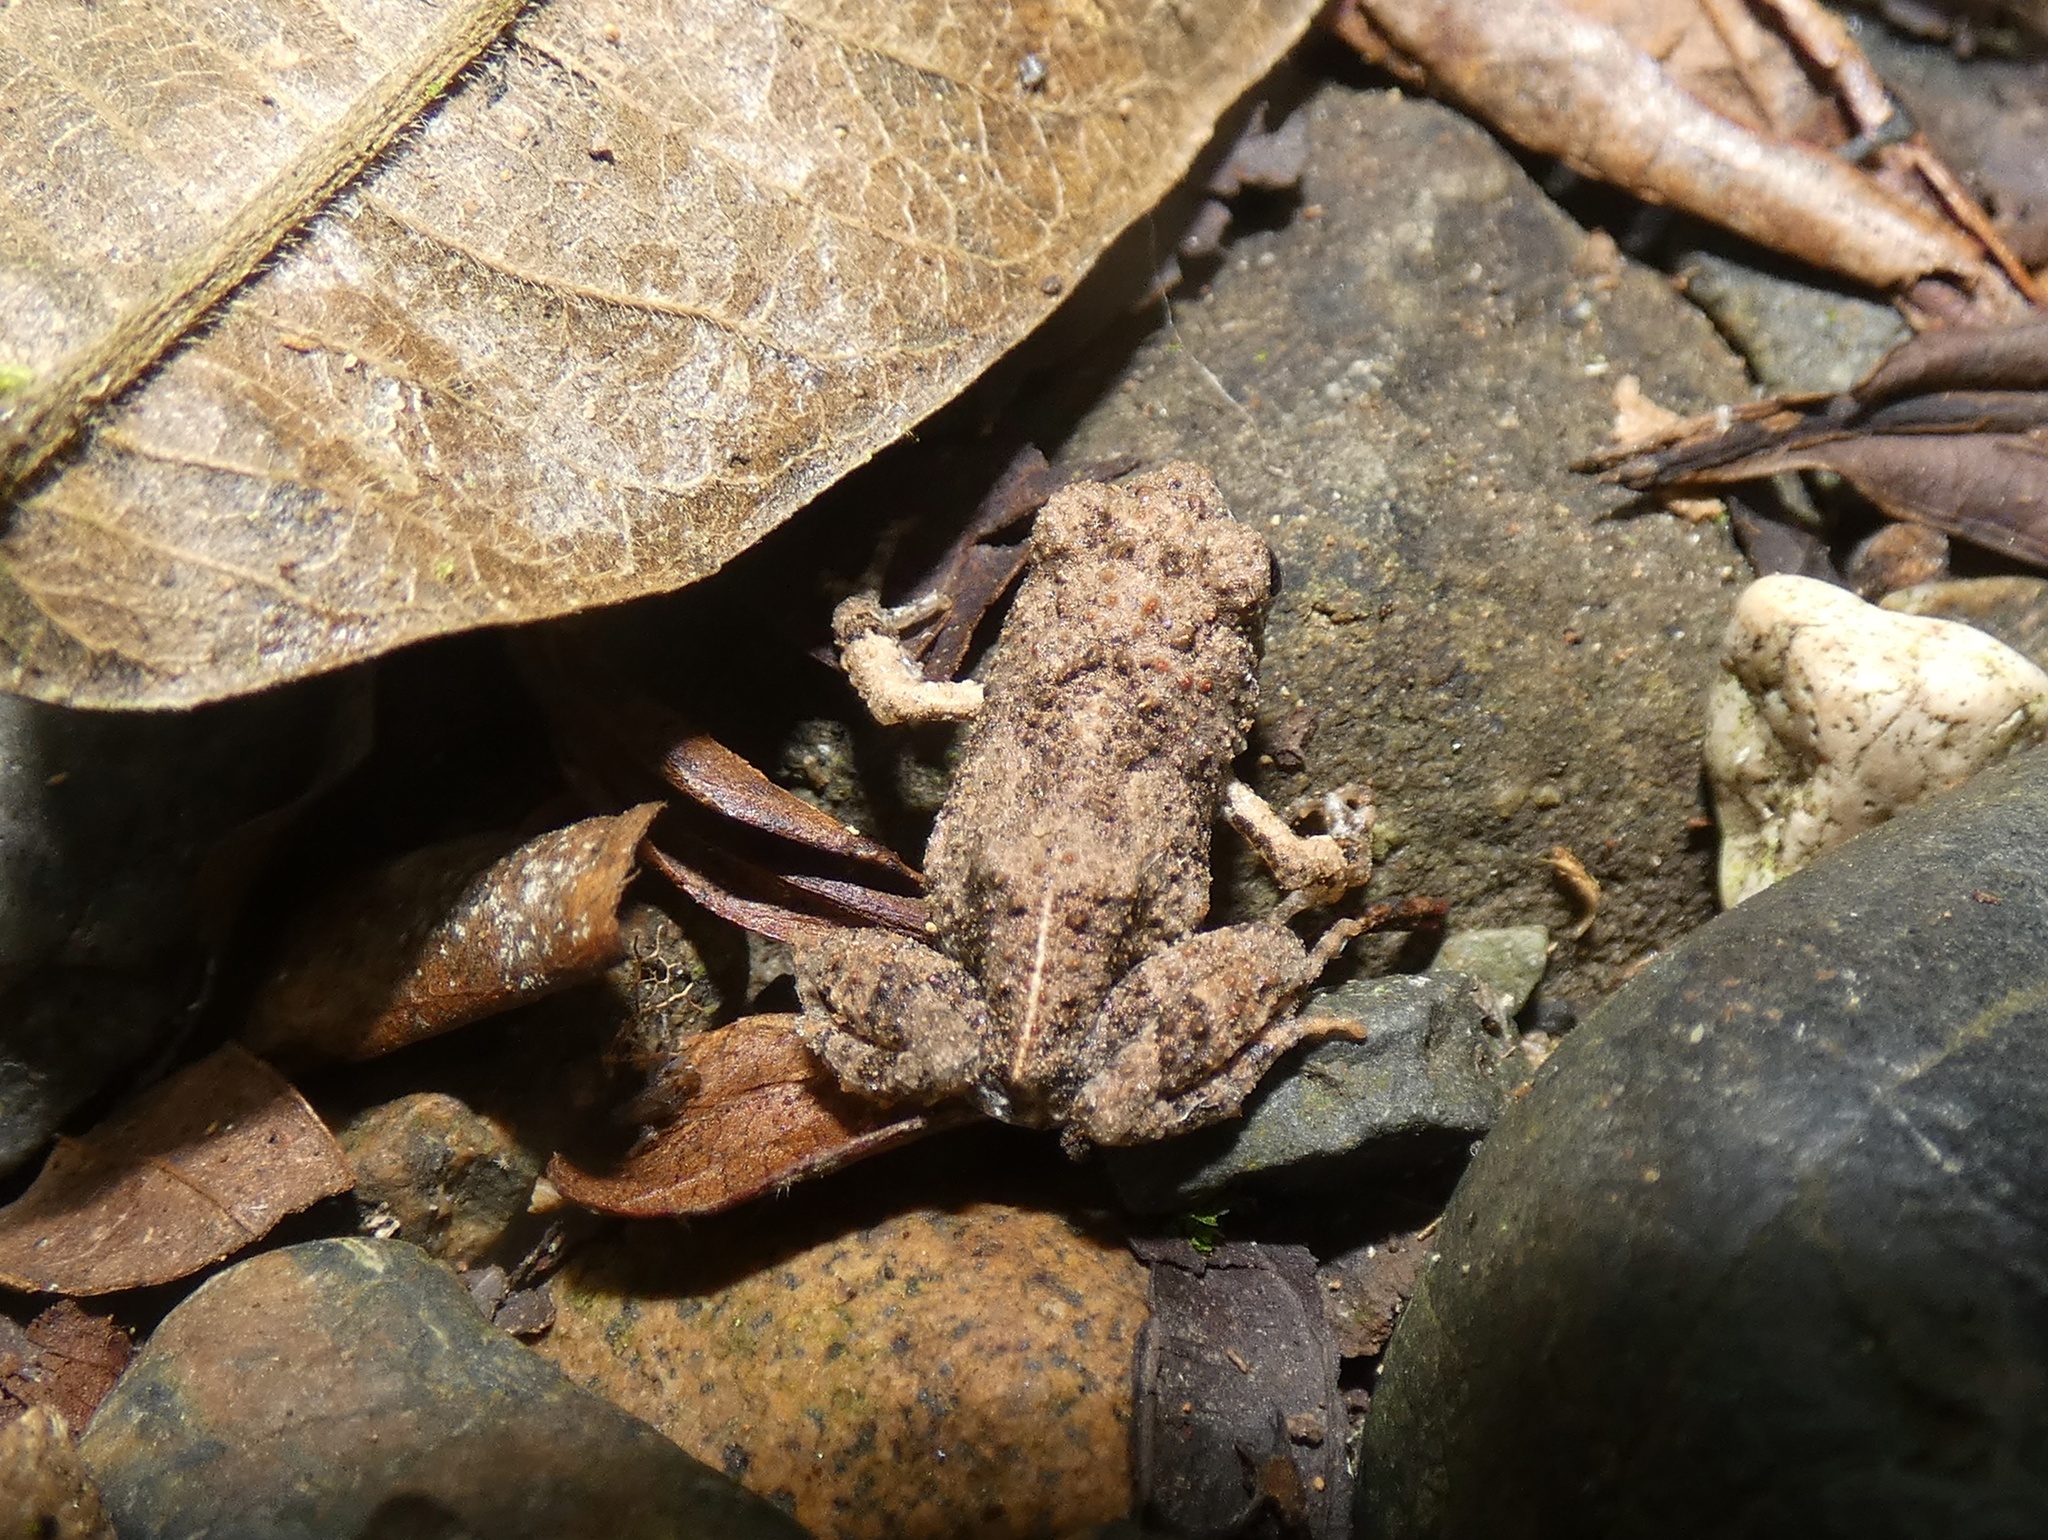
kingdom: Animalia
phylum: Chordata
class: Amphibia
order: Anura
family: Leptodactylidae
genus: Engystomops
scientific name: Engystomops pustulosus
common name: Tungara frog
